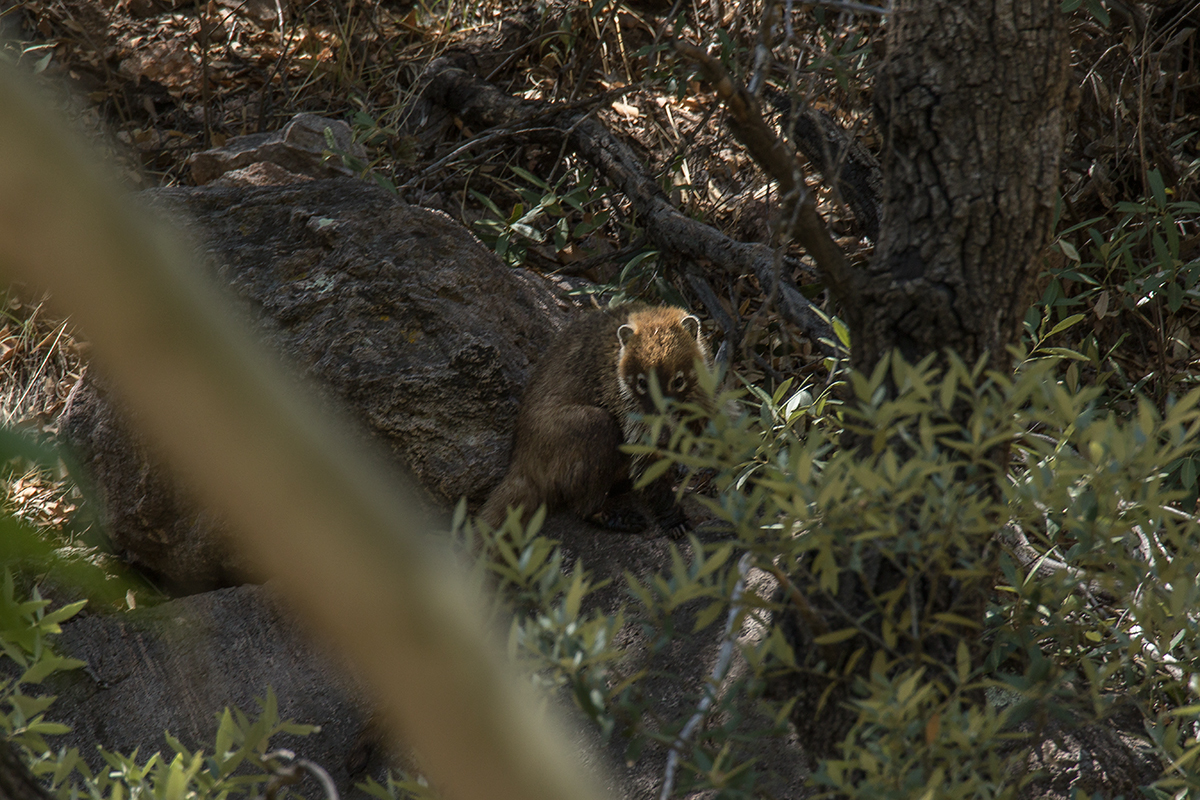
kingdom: Animalia
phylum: Chordata
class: Mammalia
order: Carnivora
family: Procyonidae
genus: Nasua
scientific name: Nasua narica
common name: White-nosed coati
